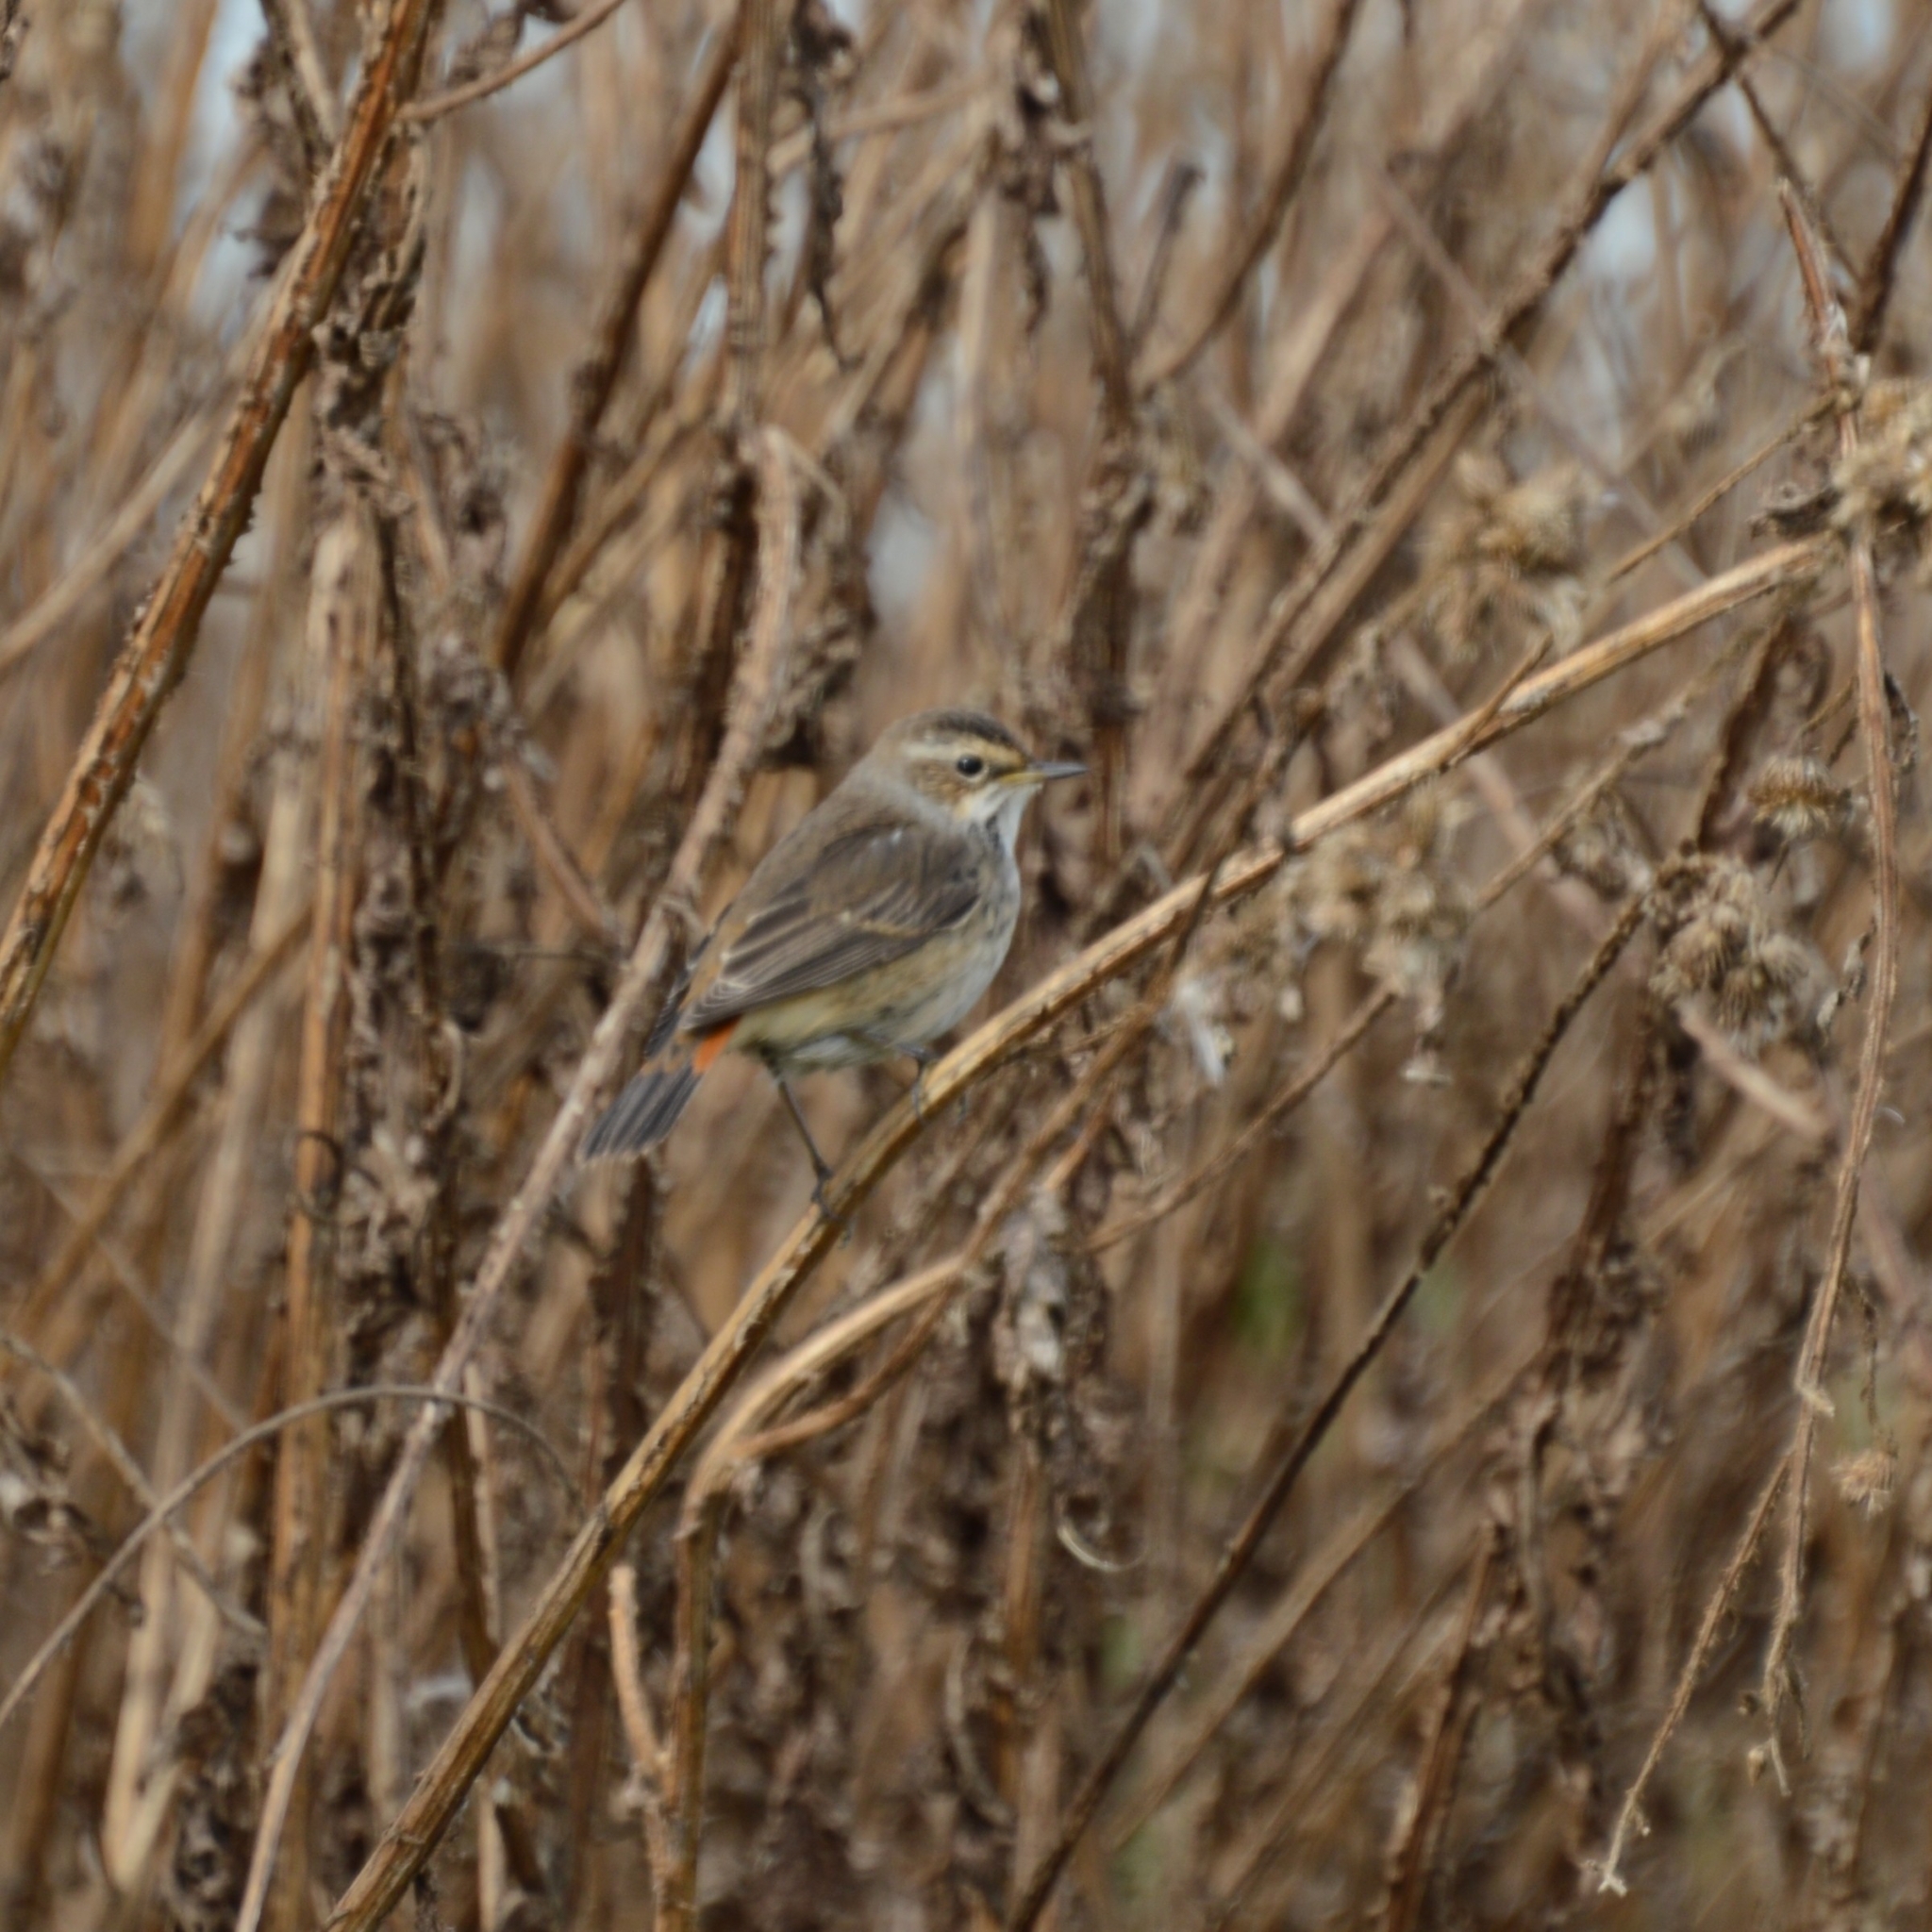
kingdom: Animalia
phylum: Chordata
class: Aves
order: Passeriformes
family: Muscicapidae
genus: Luscinia
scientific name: Luscinia svecica
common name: Bluethroat
